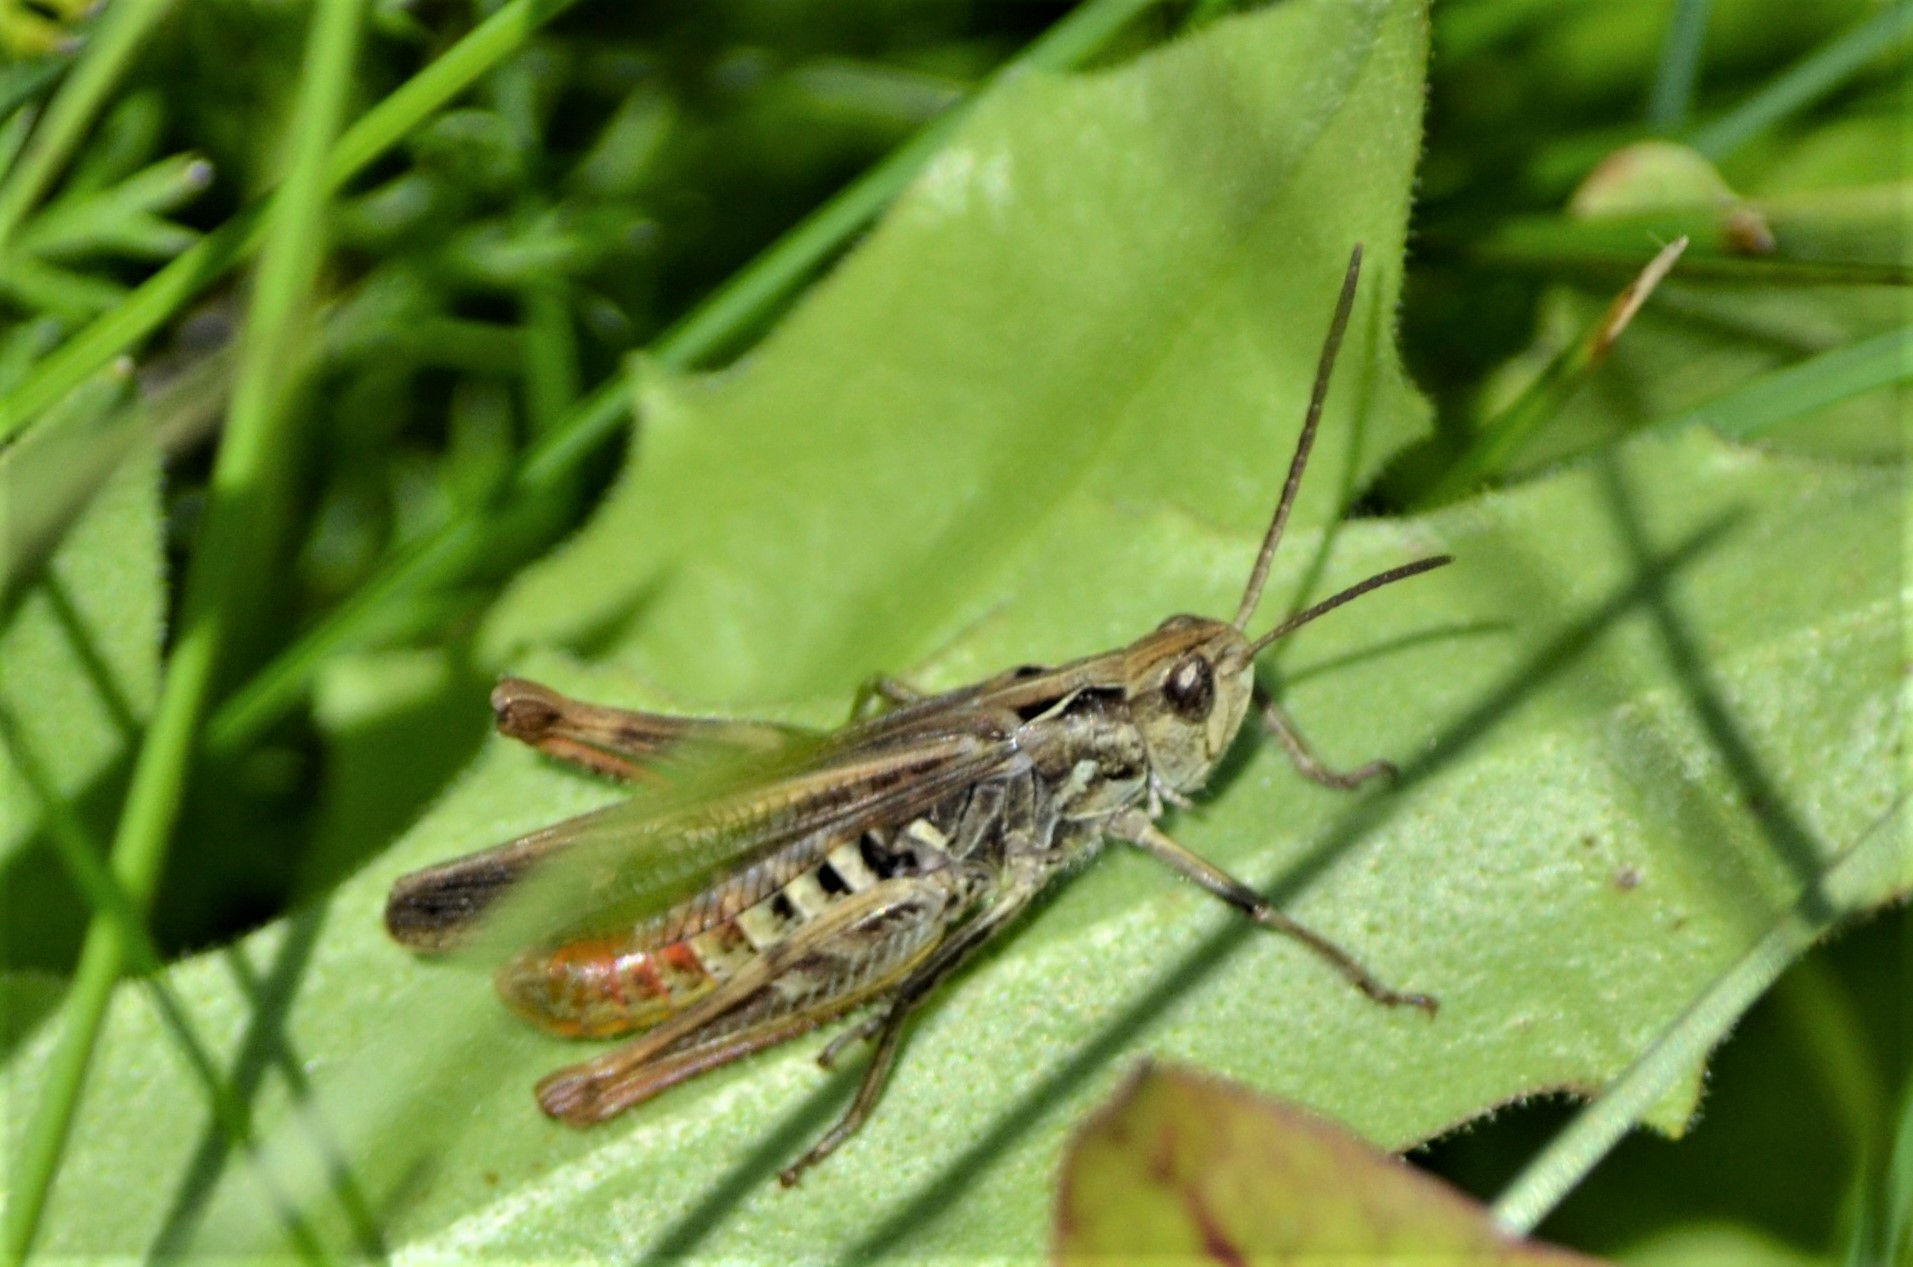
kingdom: Animalia
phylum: Arthropoda
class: Insecta
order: Orthoptera
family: Acrididae
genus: Chorthippus
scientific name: Chorthippus biguttulus
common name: Bow-winged grasshopper
